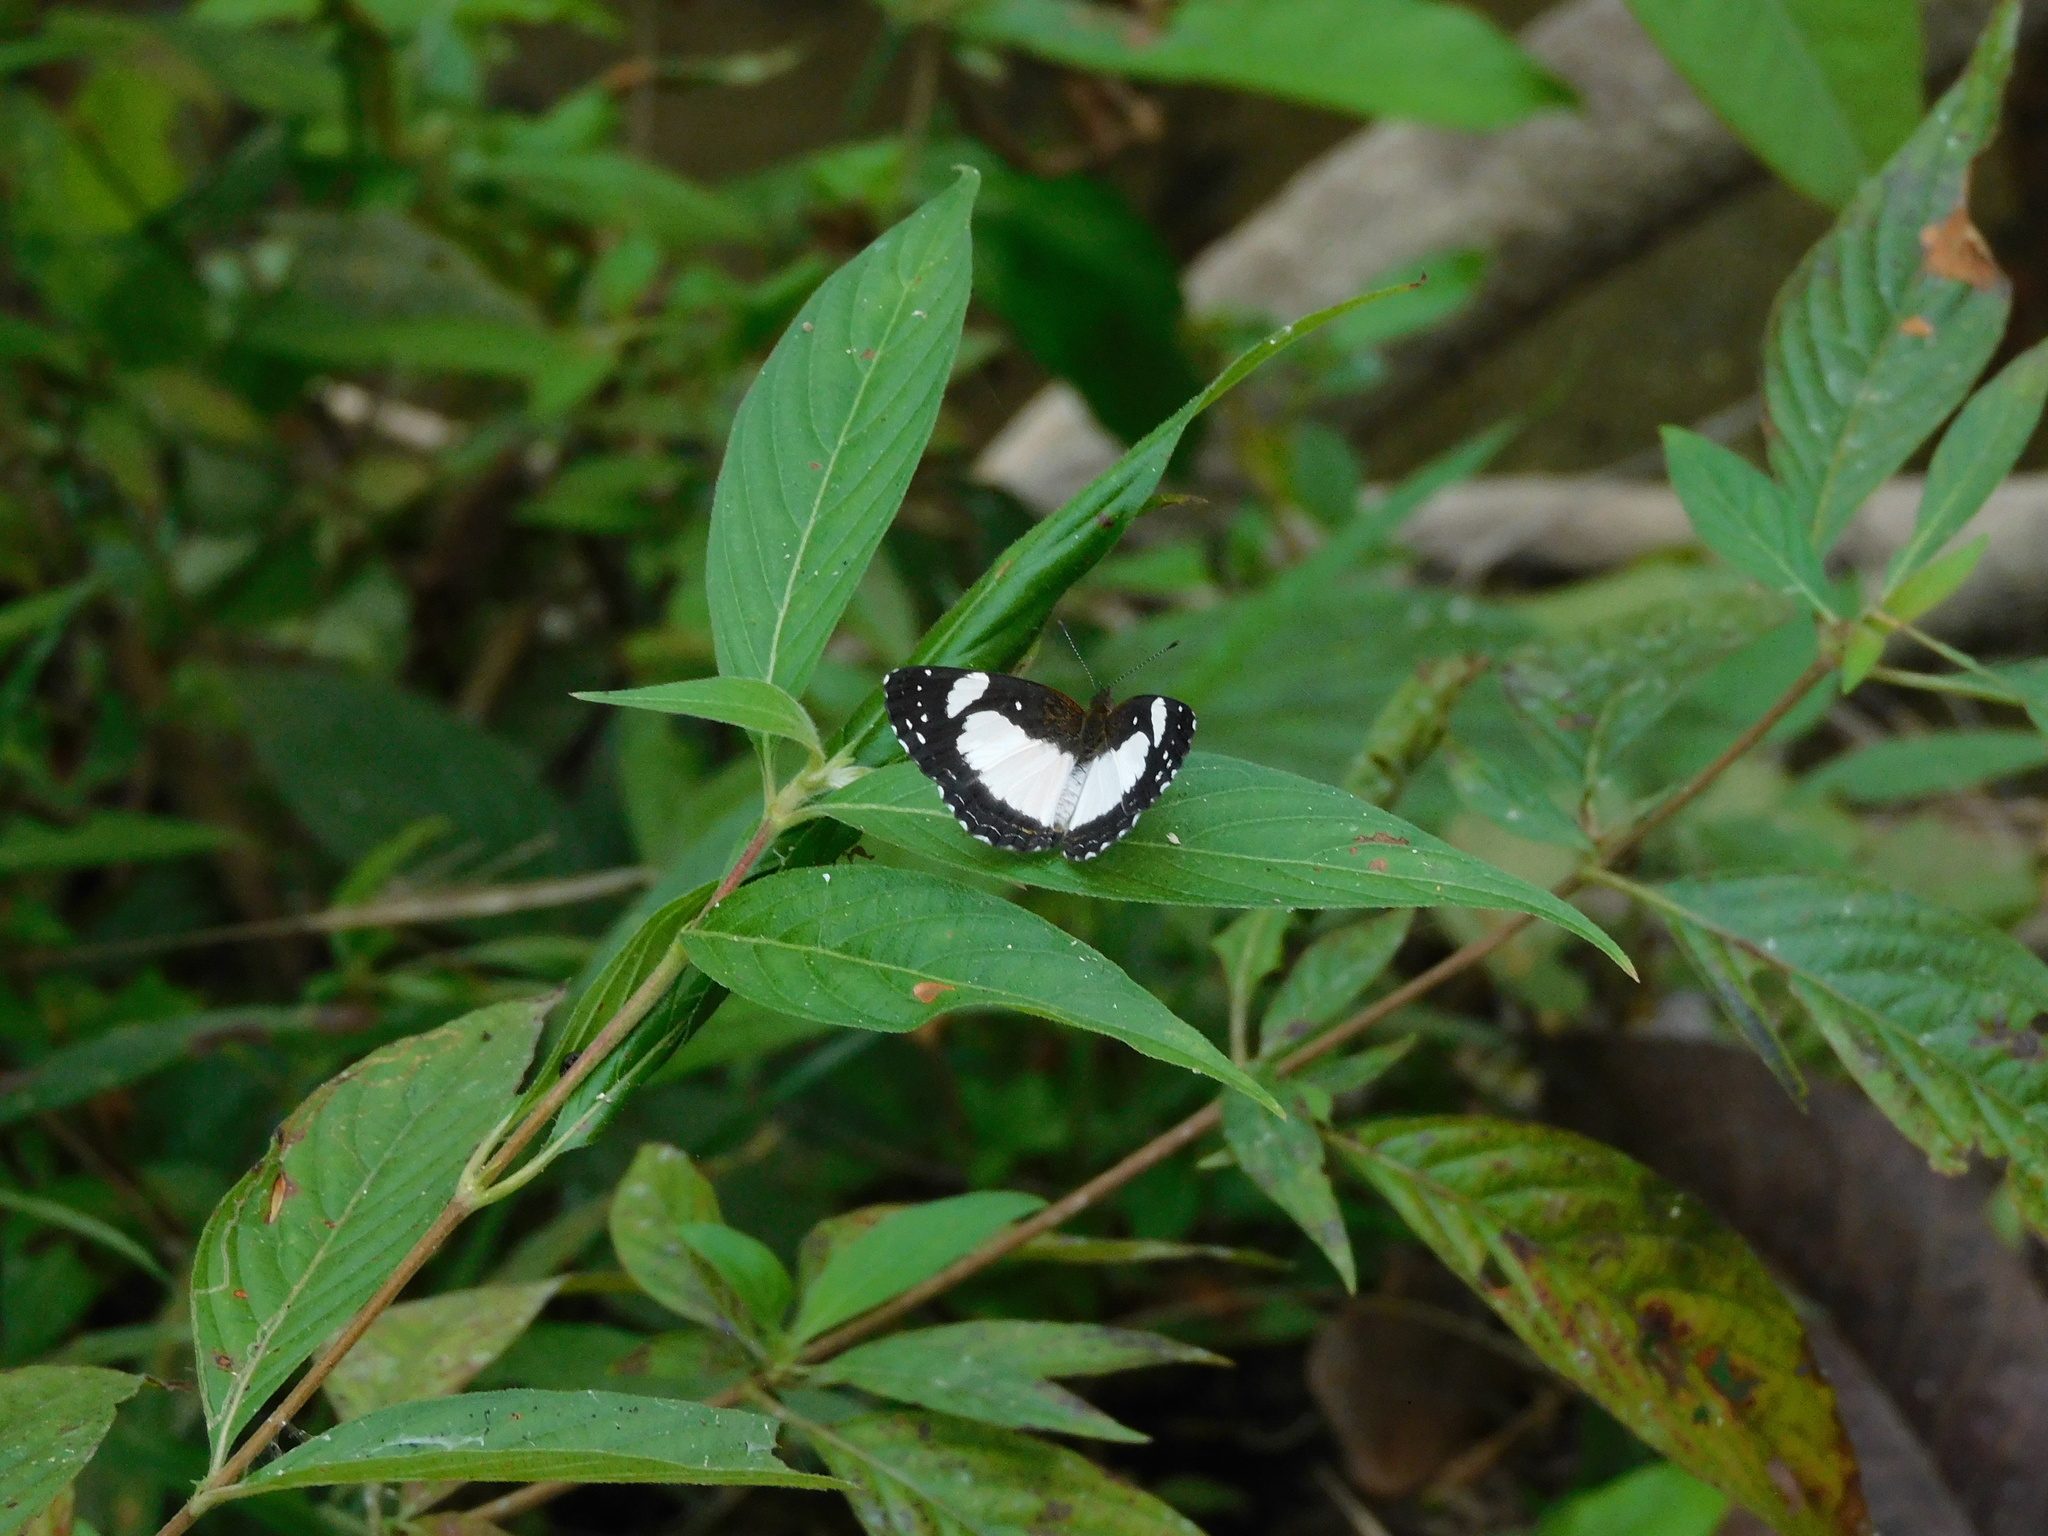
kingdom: Animalia
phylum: Arthropoda
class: Insecta
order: Lepidoptera
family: Nymphalidae
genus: Janatella
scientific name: Janatella leucodesma
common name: Whitened crescent
